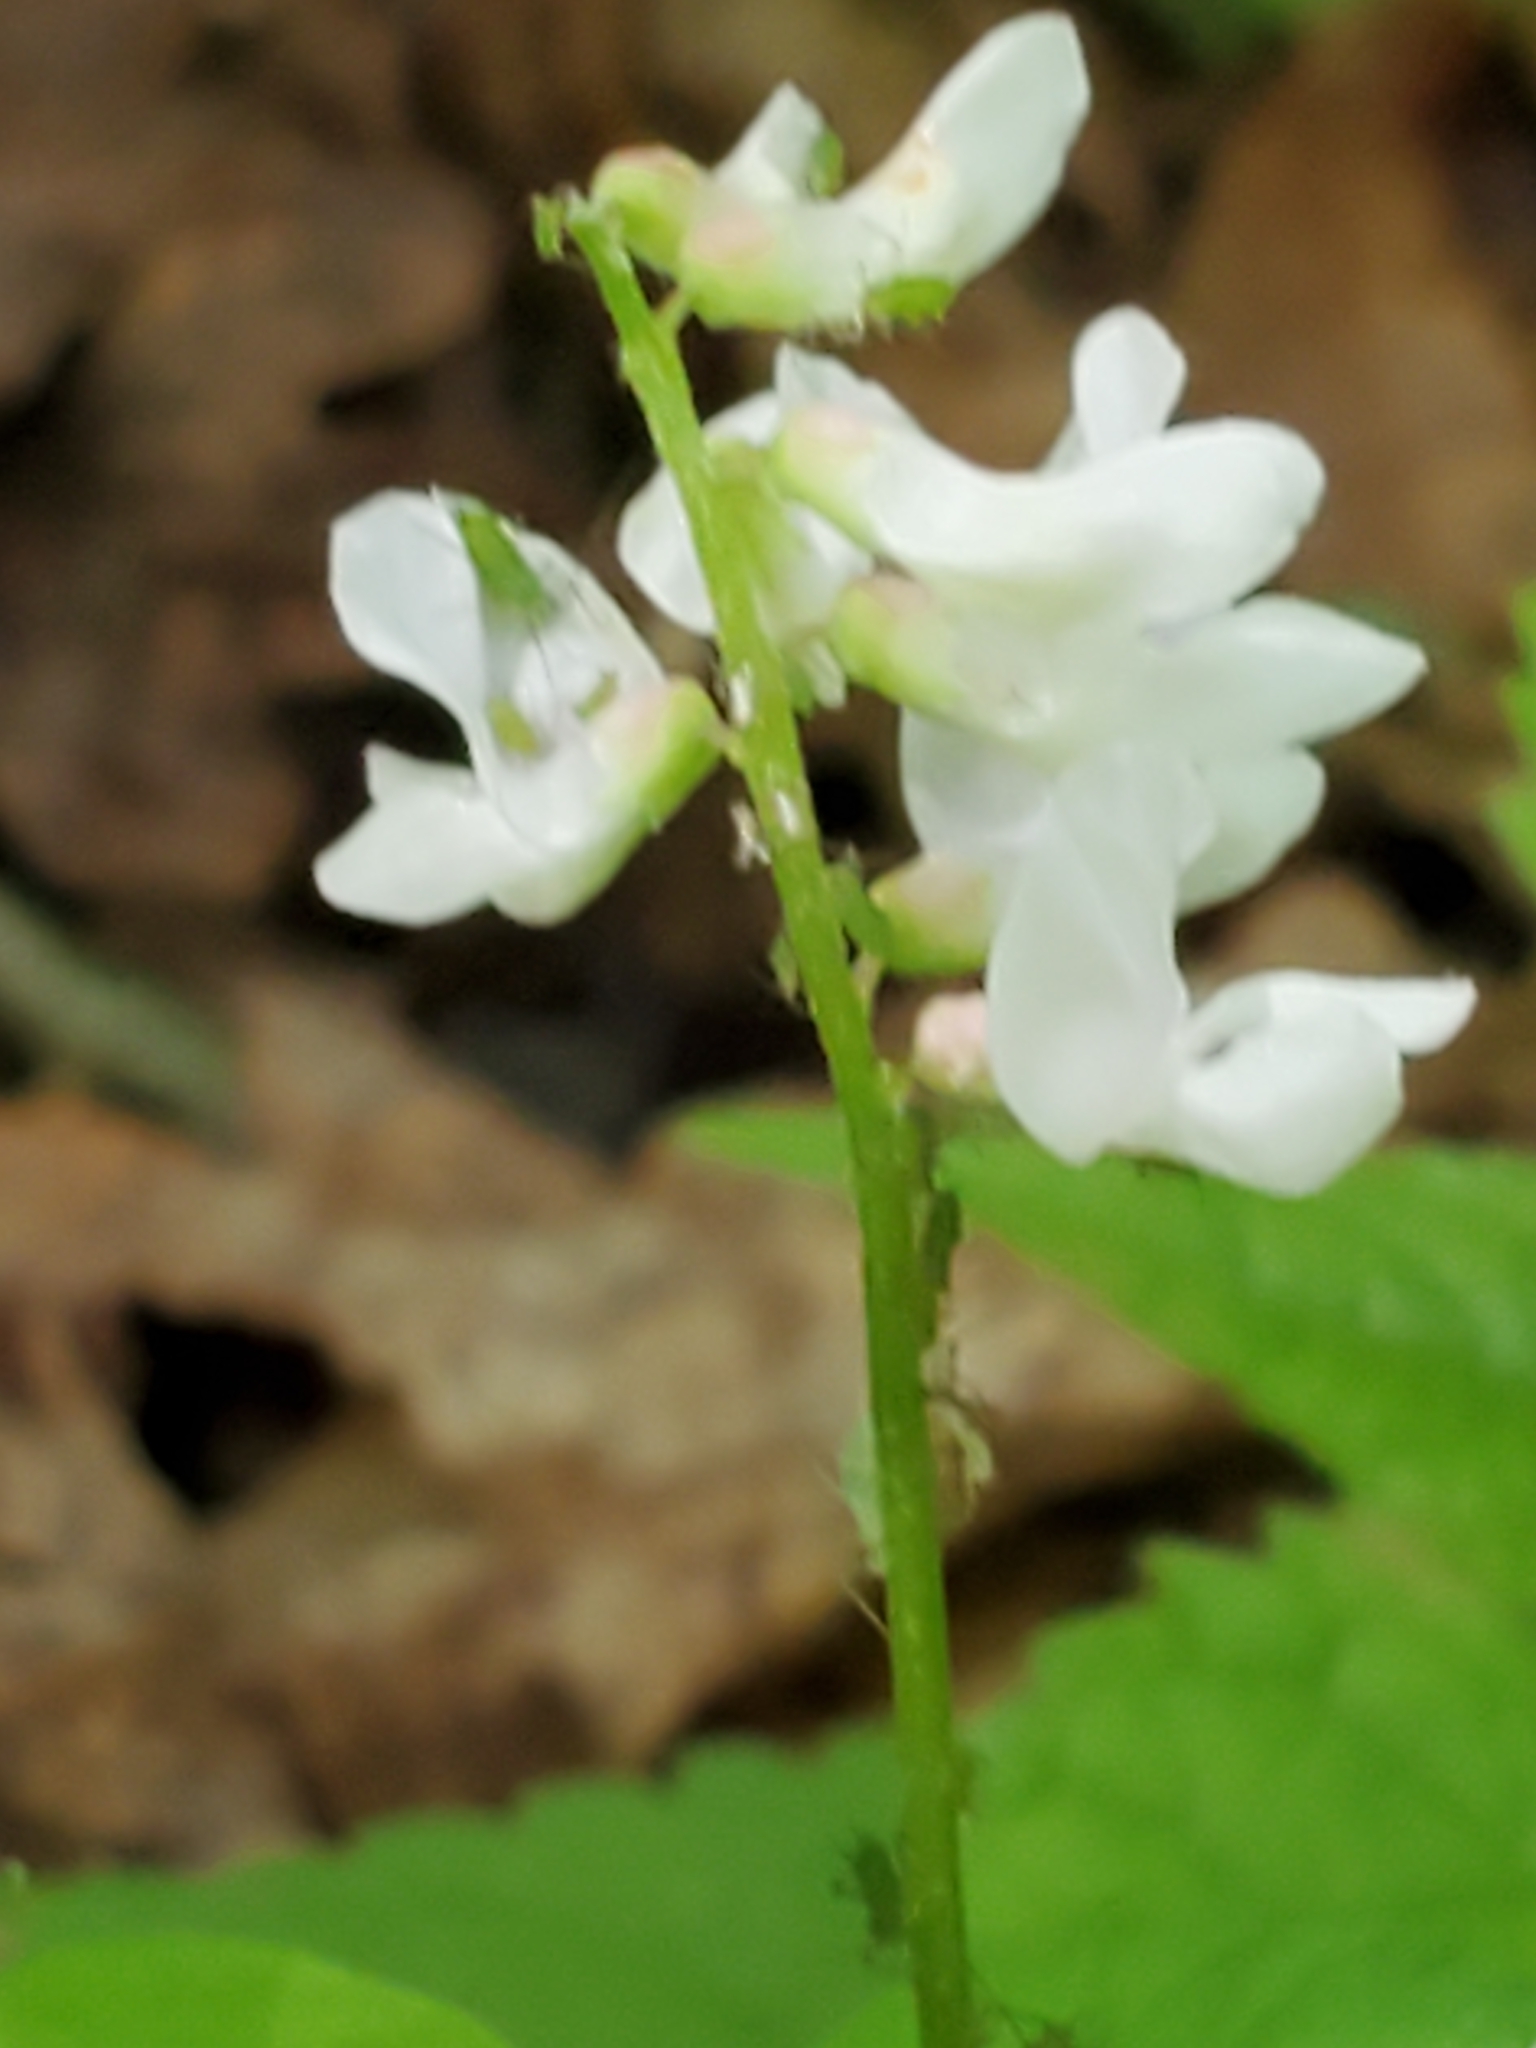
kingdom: Plantae
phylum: Tracheophyta
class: Magnoliopsida
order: Fabales
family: Fabaceae
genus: Vicia
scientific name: Vicia caroliniana
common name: Carolina vetch
